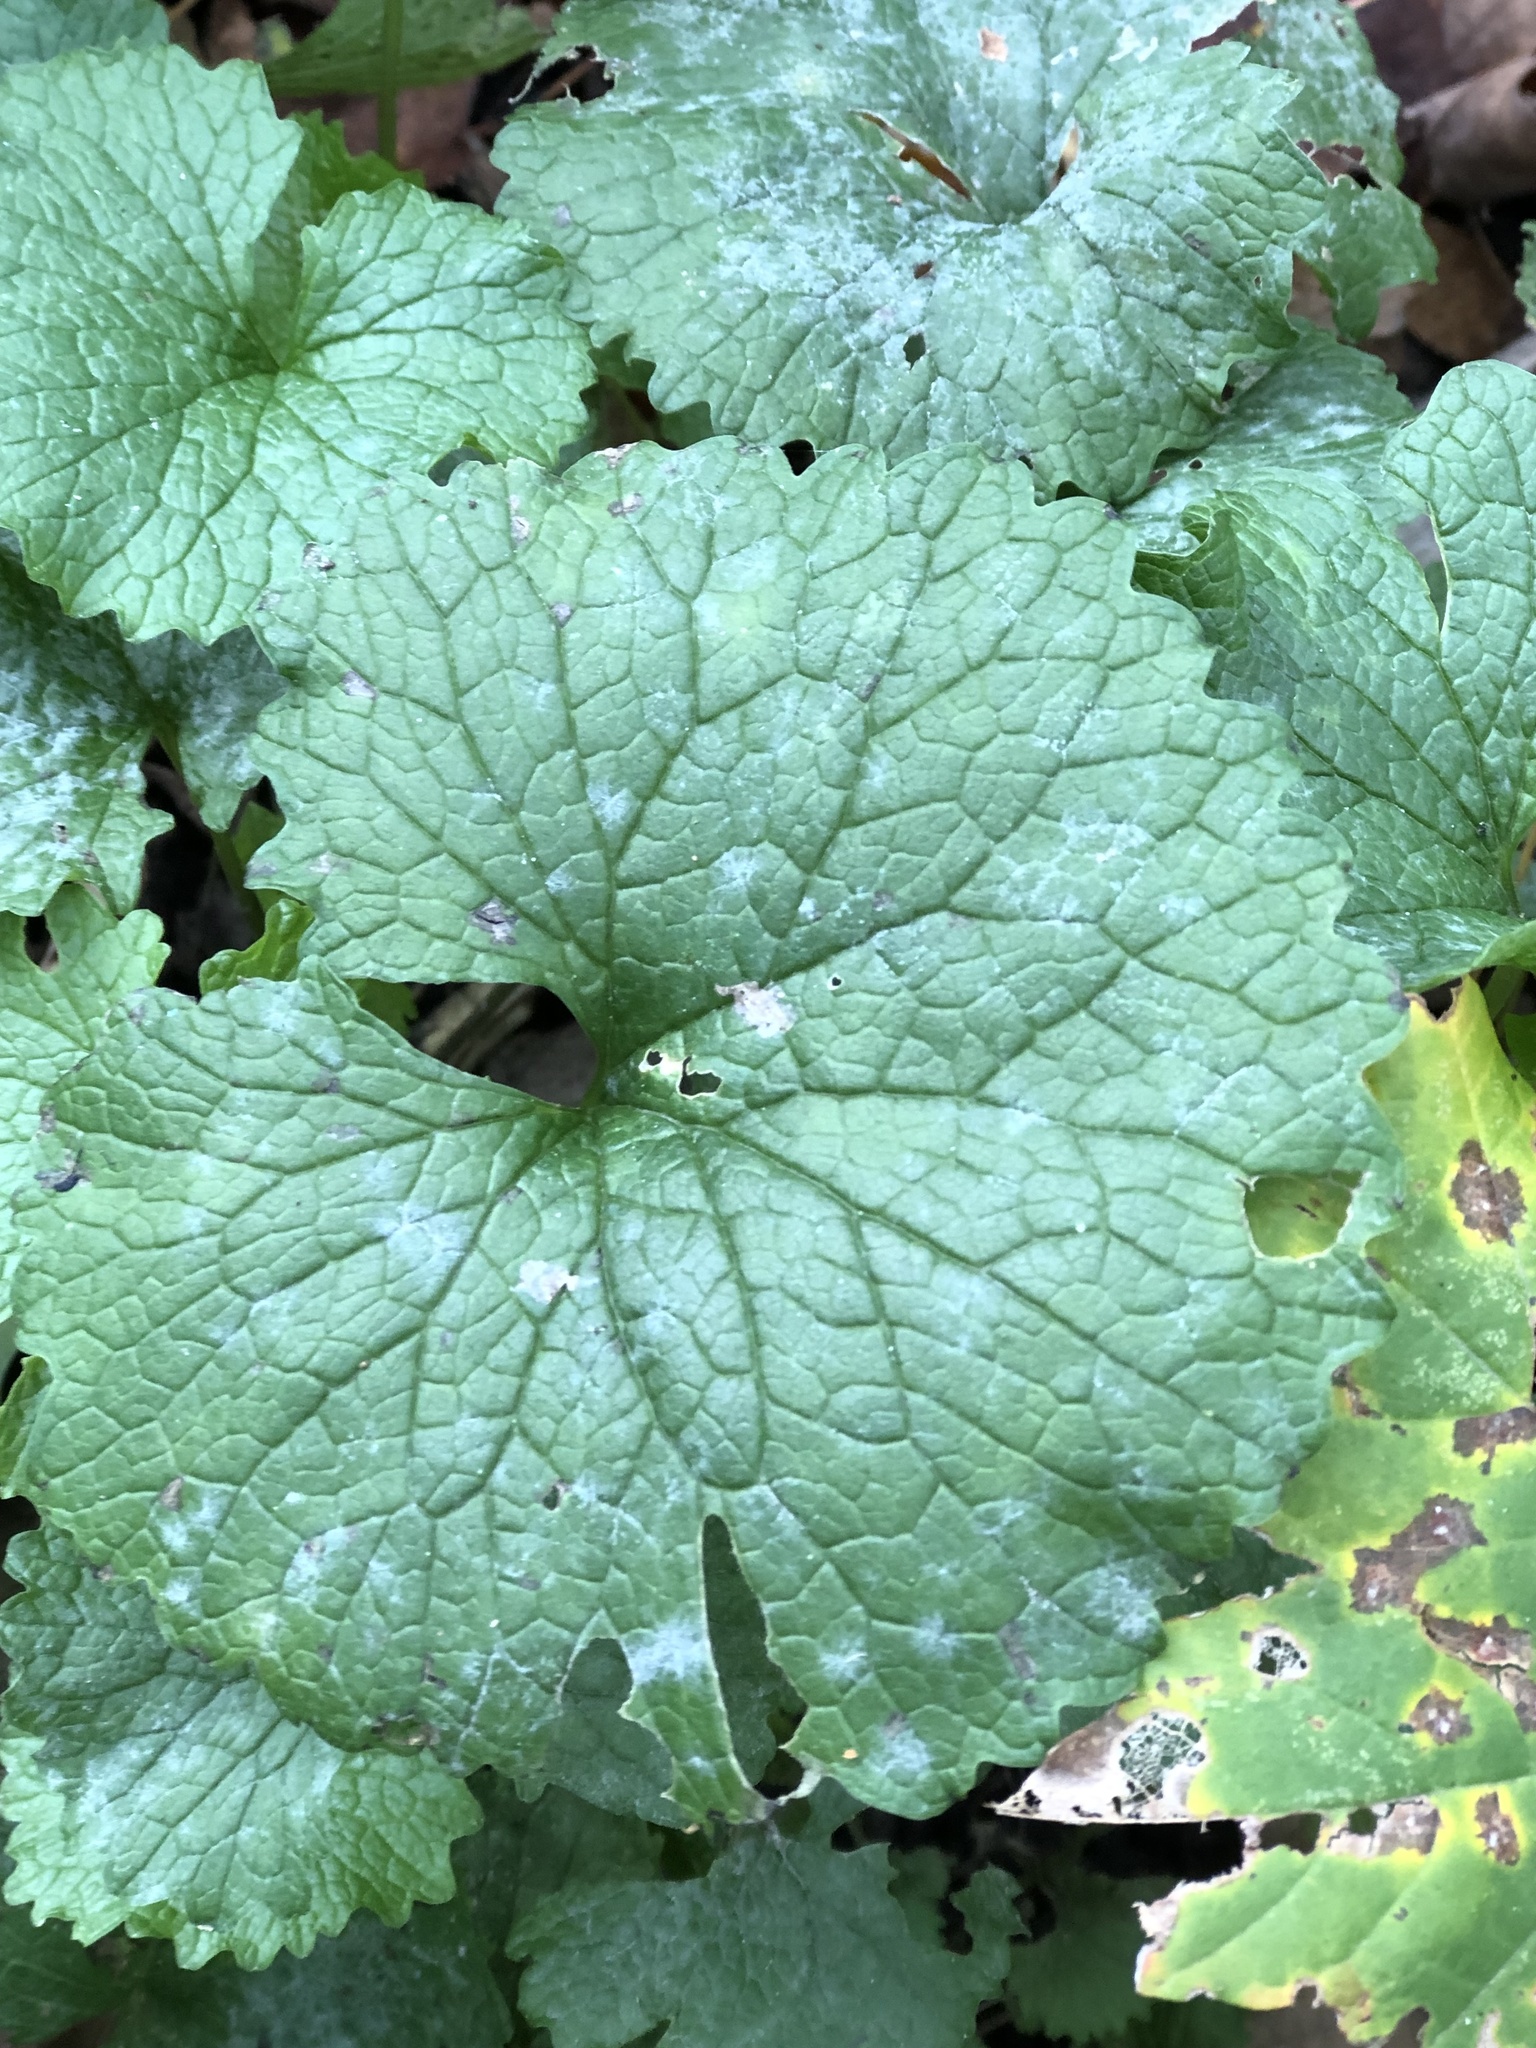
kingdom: Plantae
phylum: Tracheophyta
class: Magnoliopsida
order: Brassicales
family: Brassicaceae
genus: Alliaria
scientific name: Alliaria petiolata
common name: Garlic mustard
